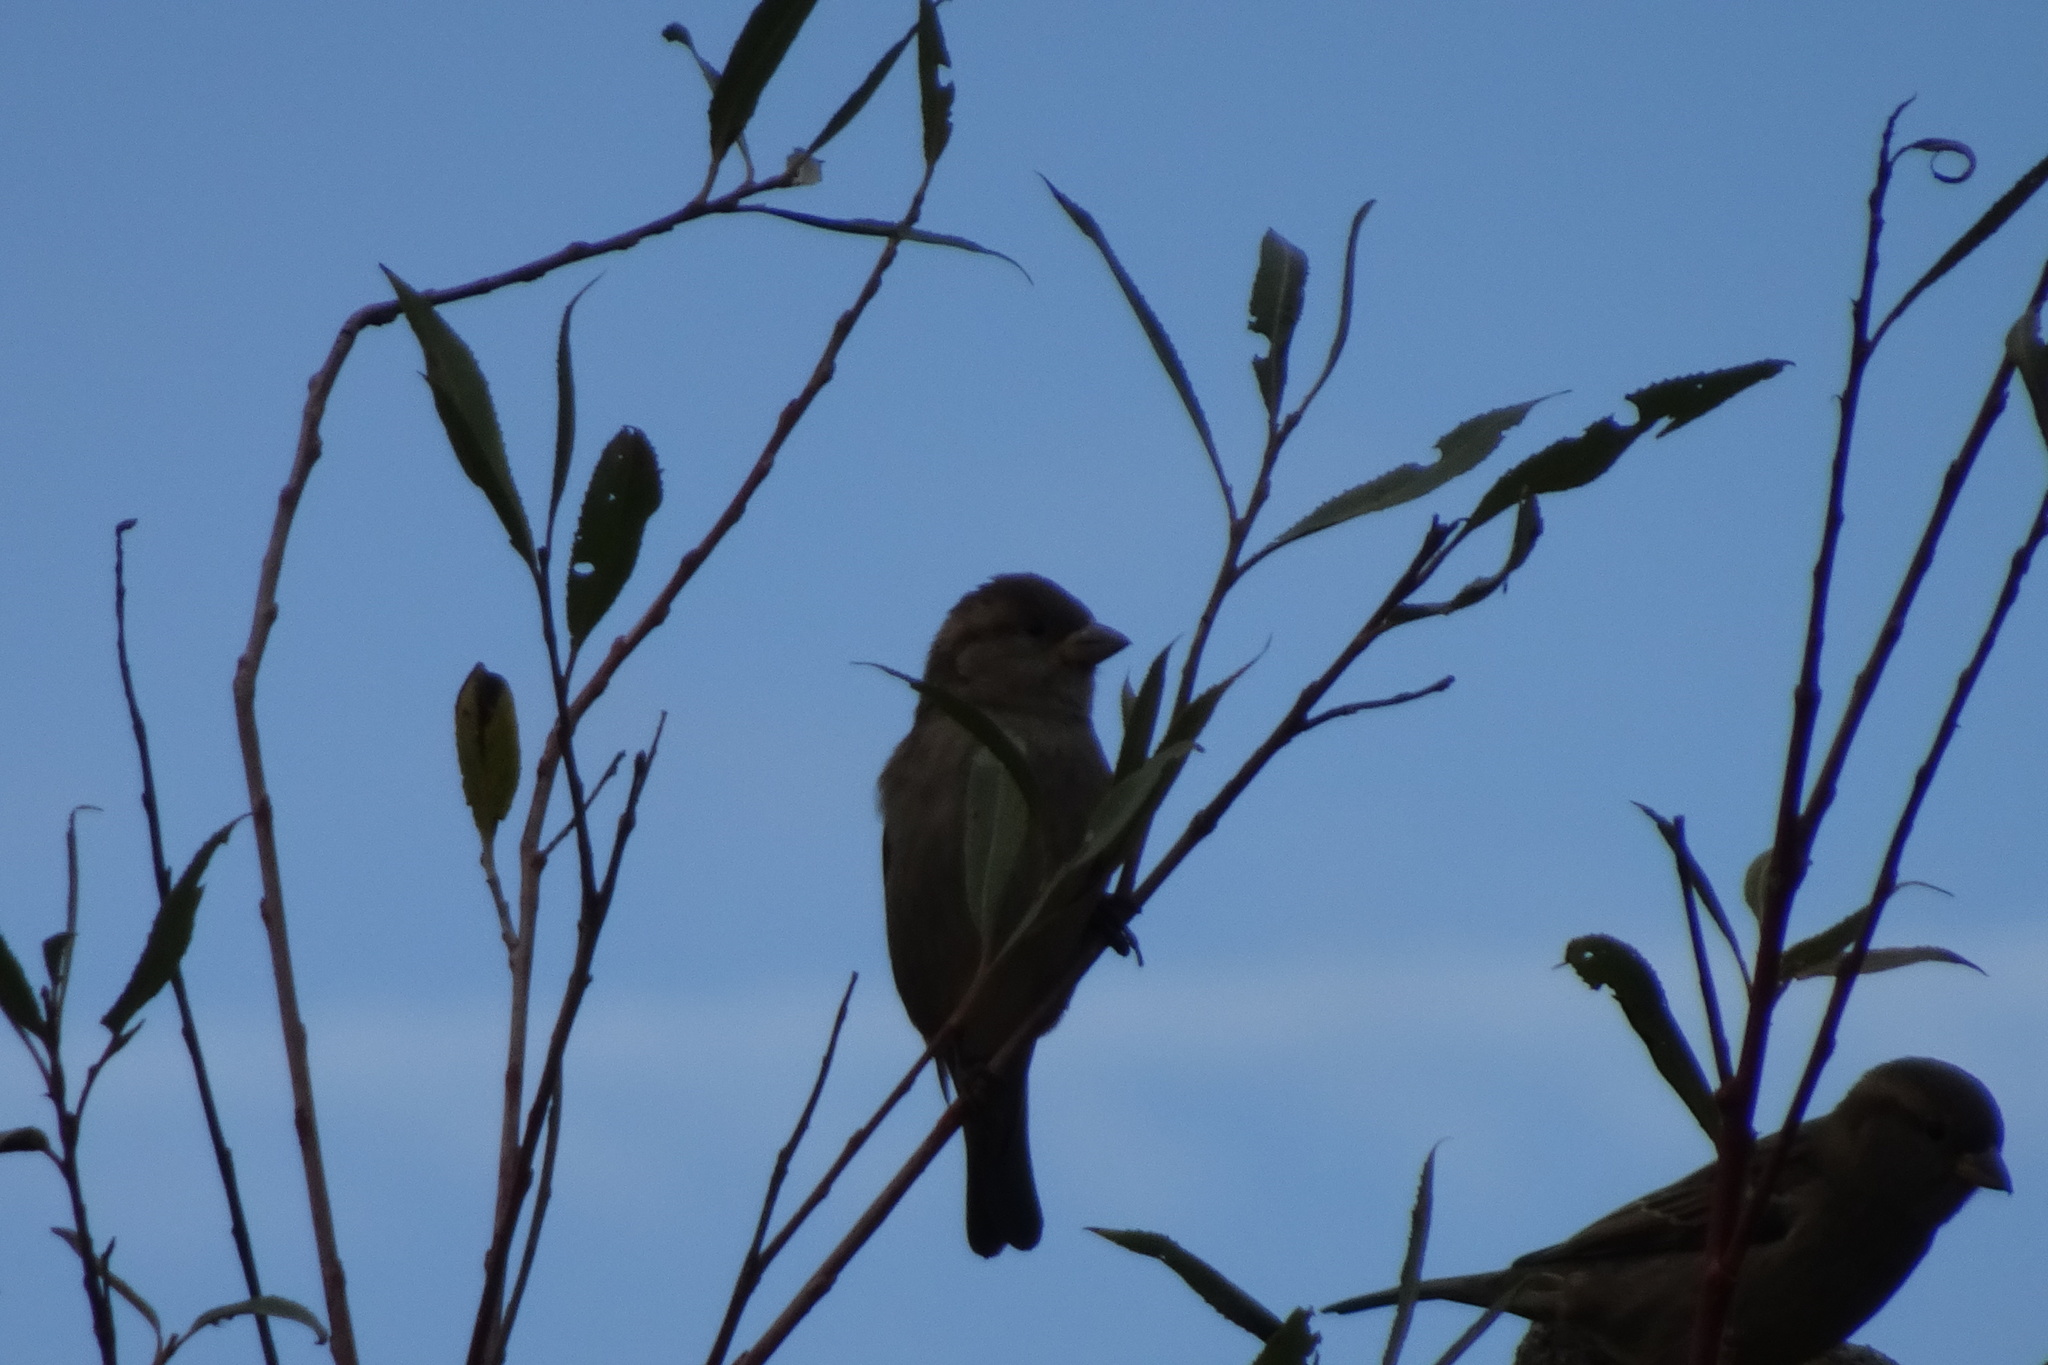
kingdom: Animalia
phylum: Chordata
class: Aves
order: Passeriformes
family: Passeridae
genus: Passer
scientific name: Passer domesticus
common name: House sparrow
